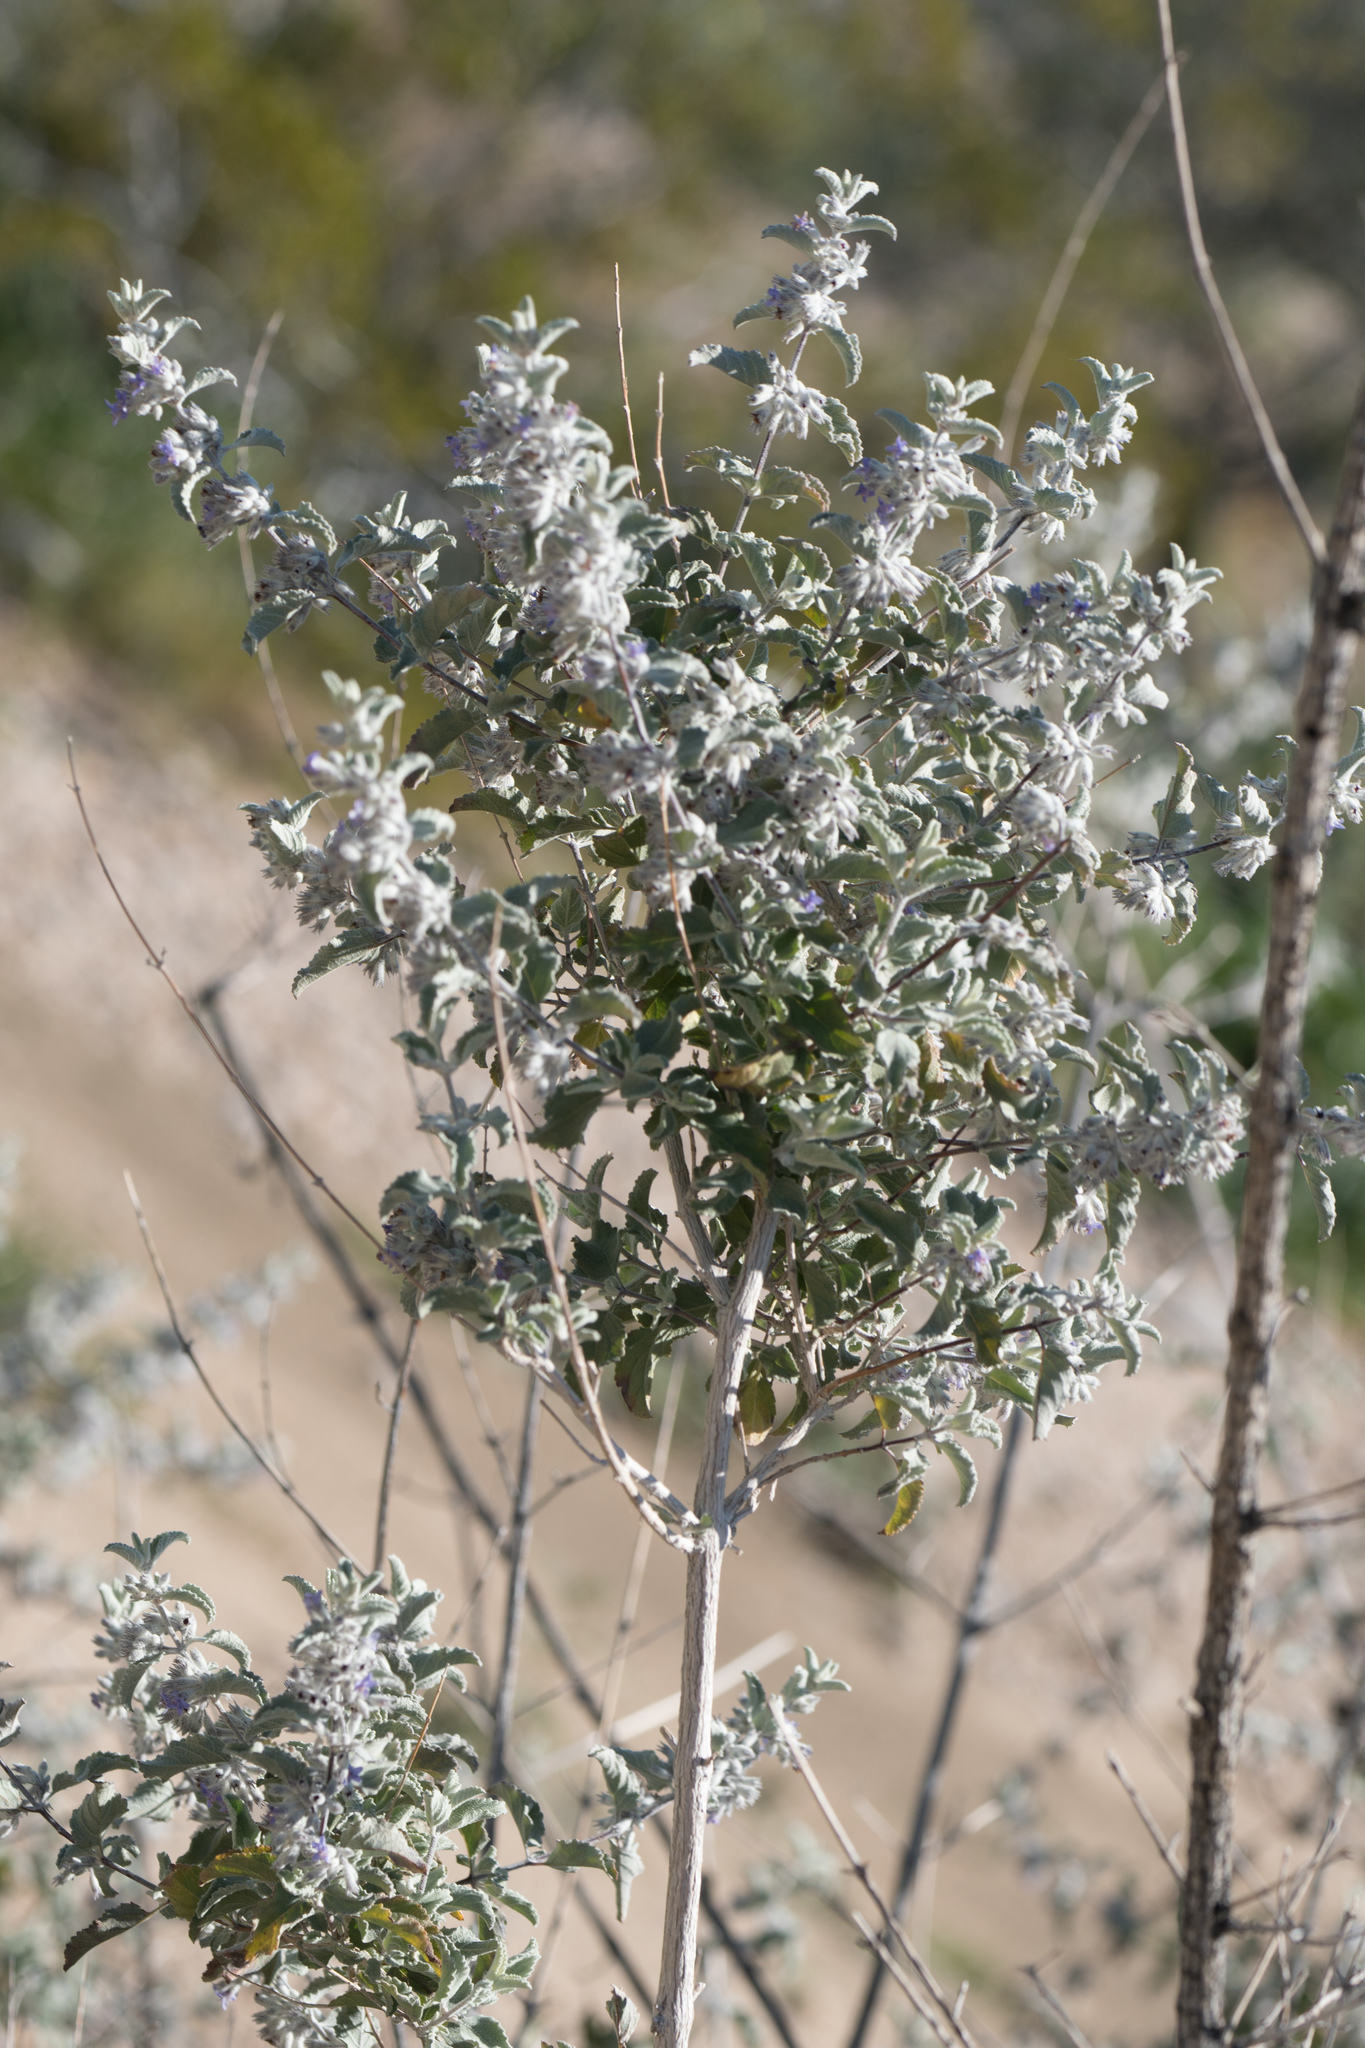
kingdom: Plantae
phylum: Tracheophyta
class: Magnoliopsida
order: Lamiales
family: Lamiaceae
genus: Condea
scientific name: Condea emoryi
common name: Chia
